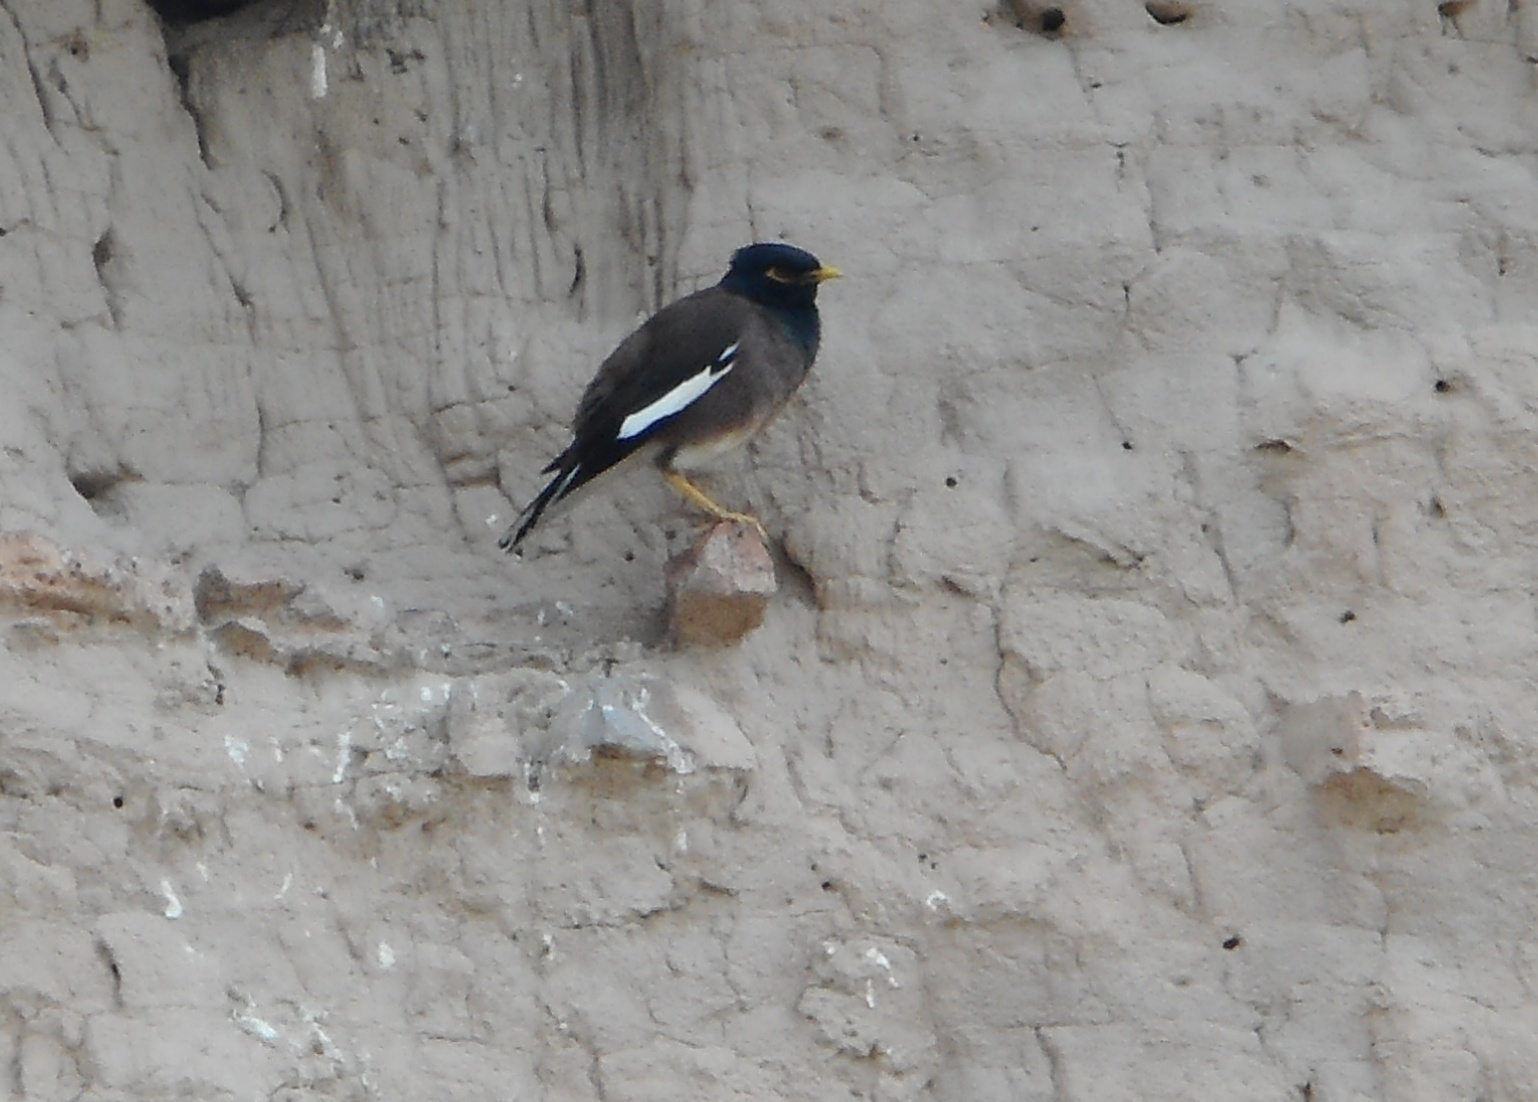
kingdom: Animalia
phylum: Chordata
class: Aves
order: Passeriformes
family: Sturnidae
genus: Acridotheres
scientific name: Acridotheres tristis
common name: Common myna
